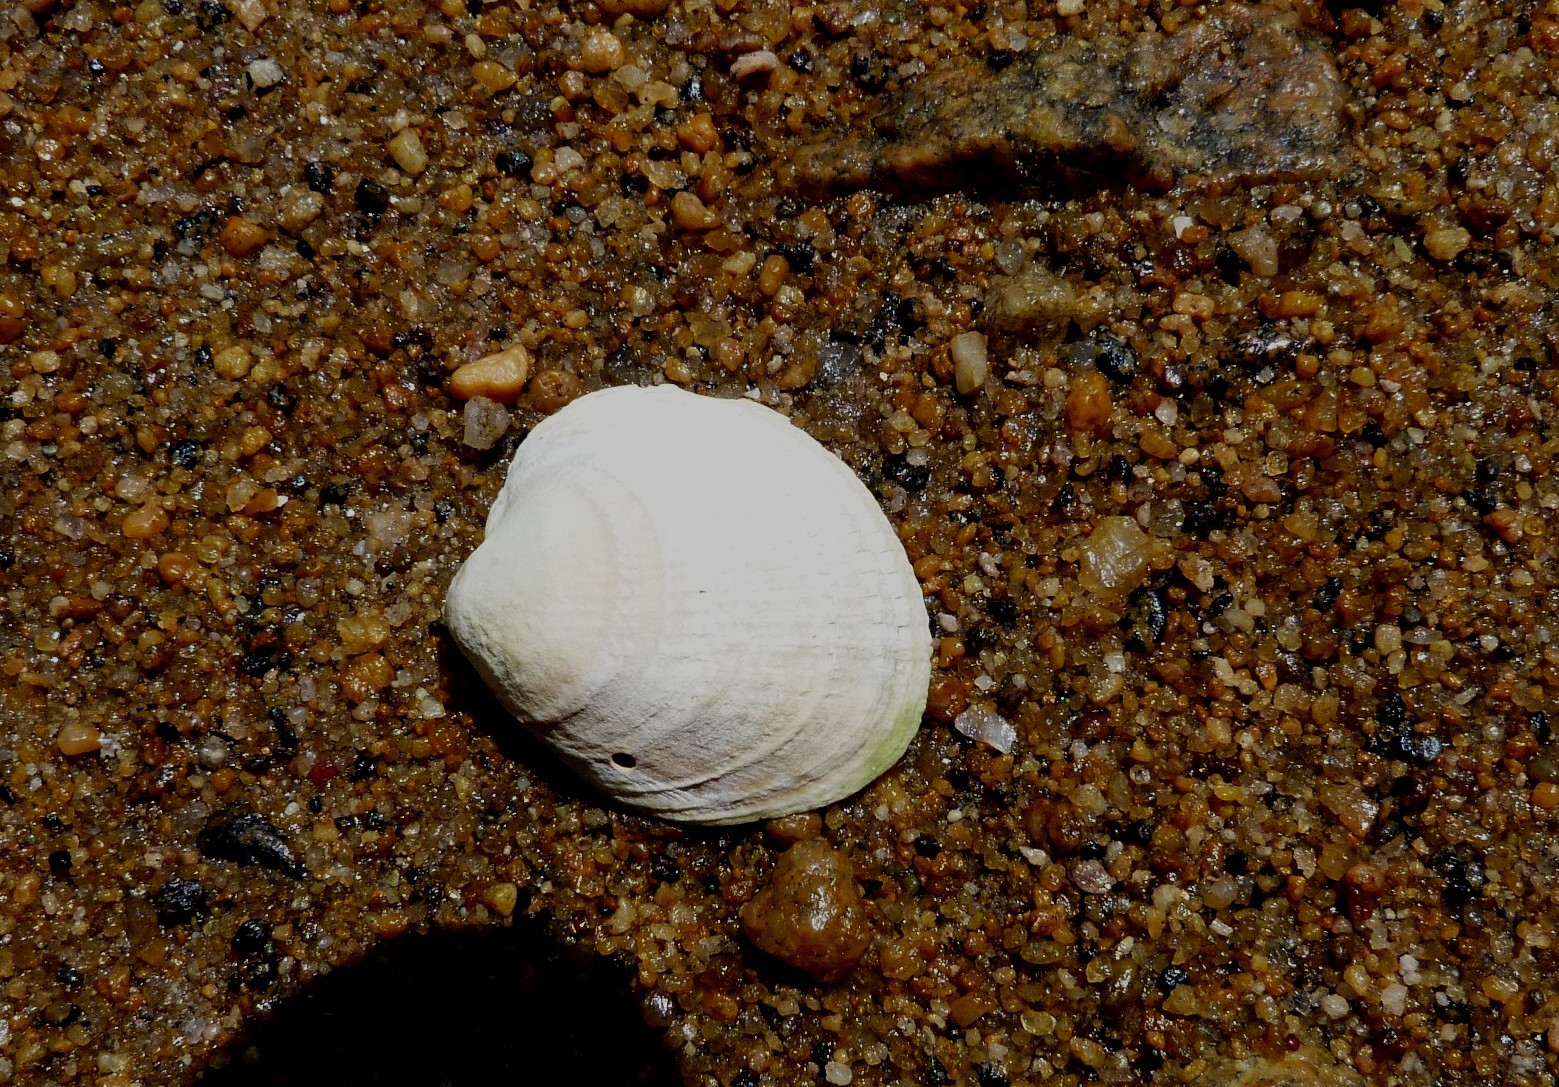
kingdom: Animalia
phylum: Mollusca
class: Bivalvia
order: Venerida
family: Veneridae
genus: Austrovenus
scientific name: Austrovenus stutchburyi
